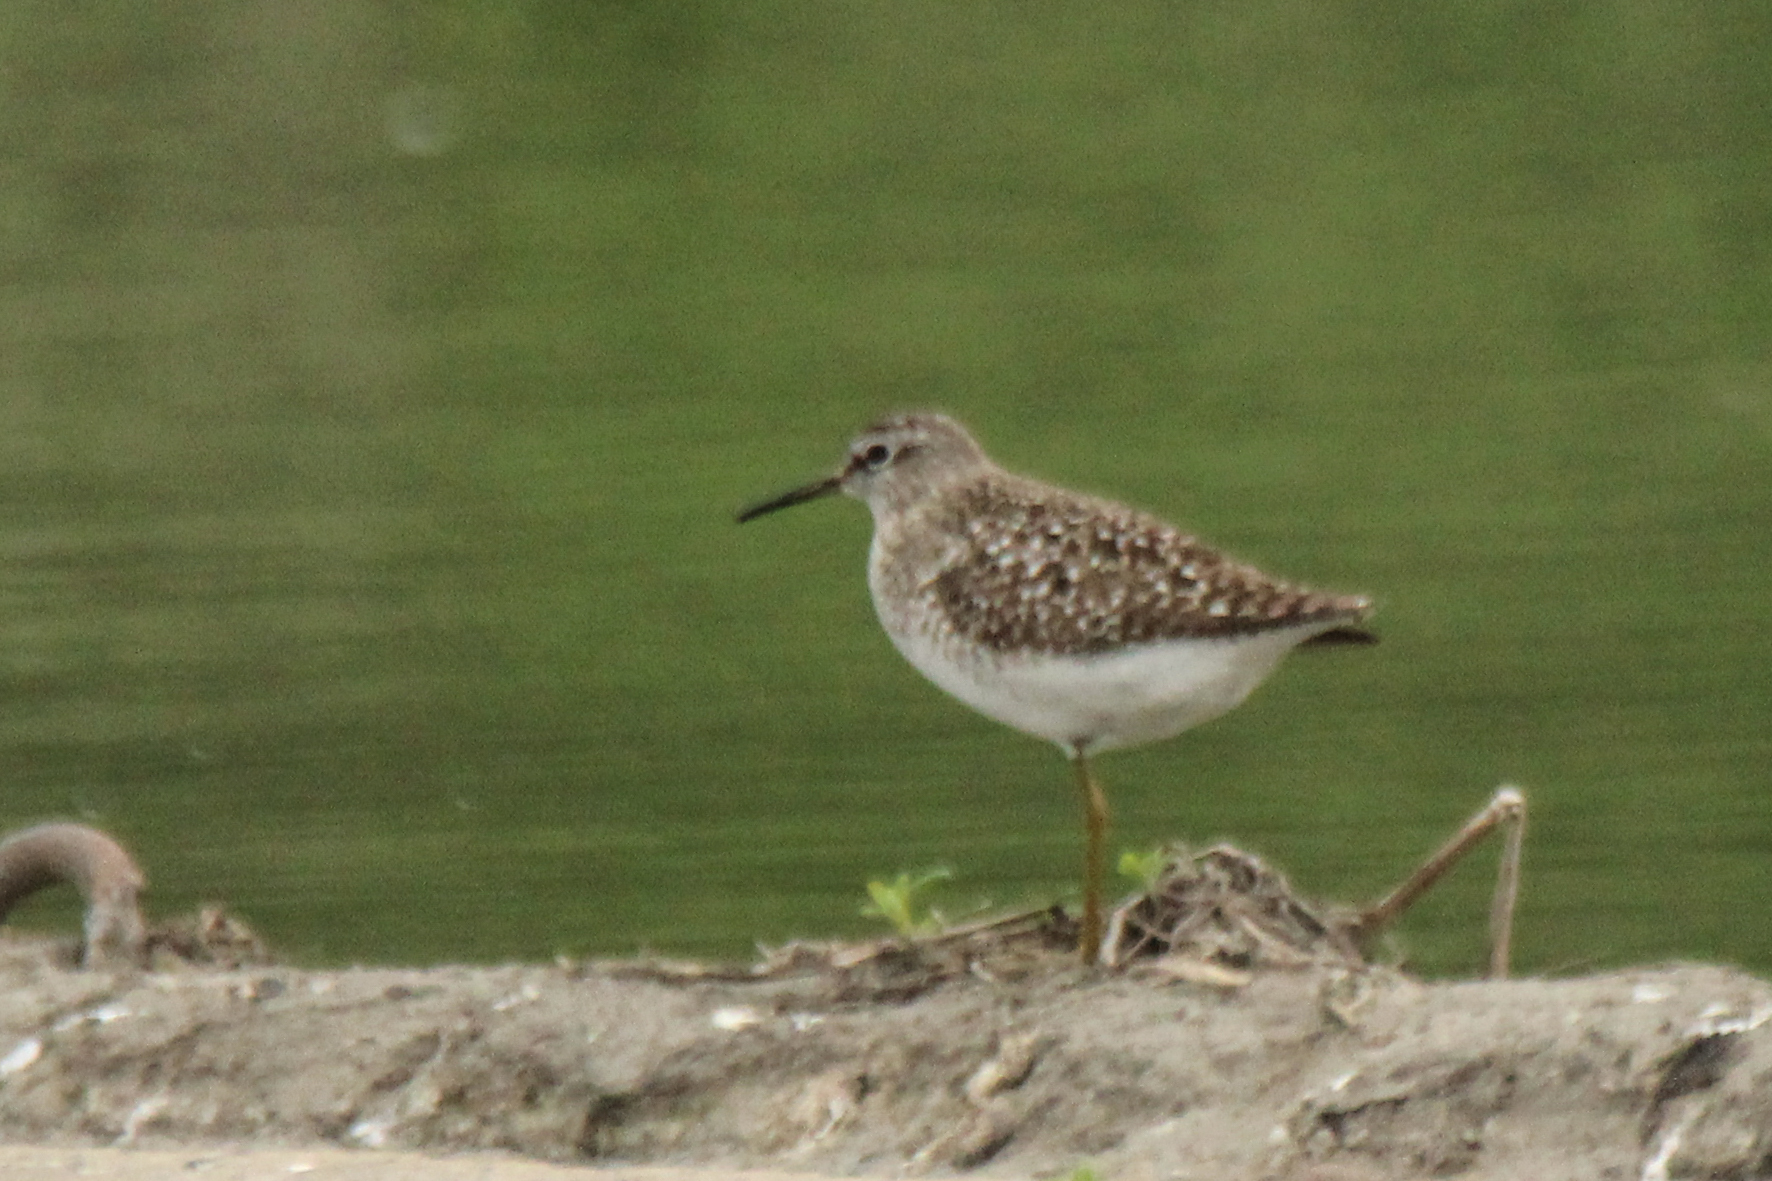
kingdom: Animalia
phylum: Chordata
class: Aves
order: Charadriiformes
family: Scolopacidae
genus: Tringa
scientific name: Tringa glareola
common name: Wood sandpiper
